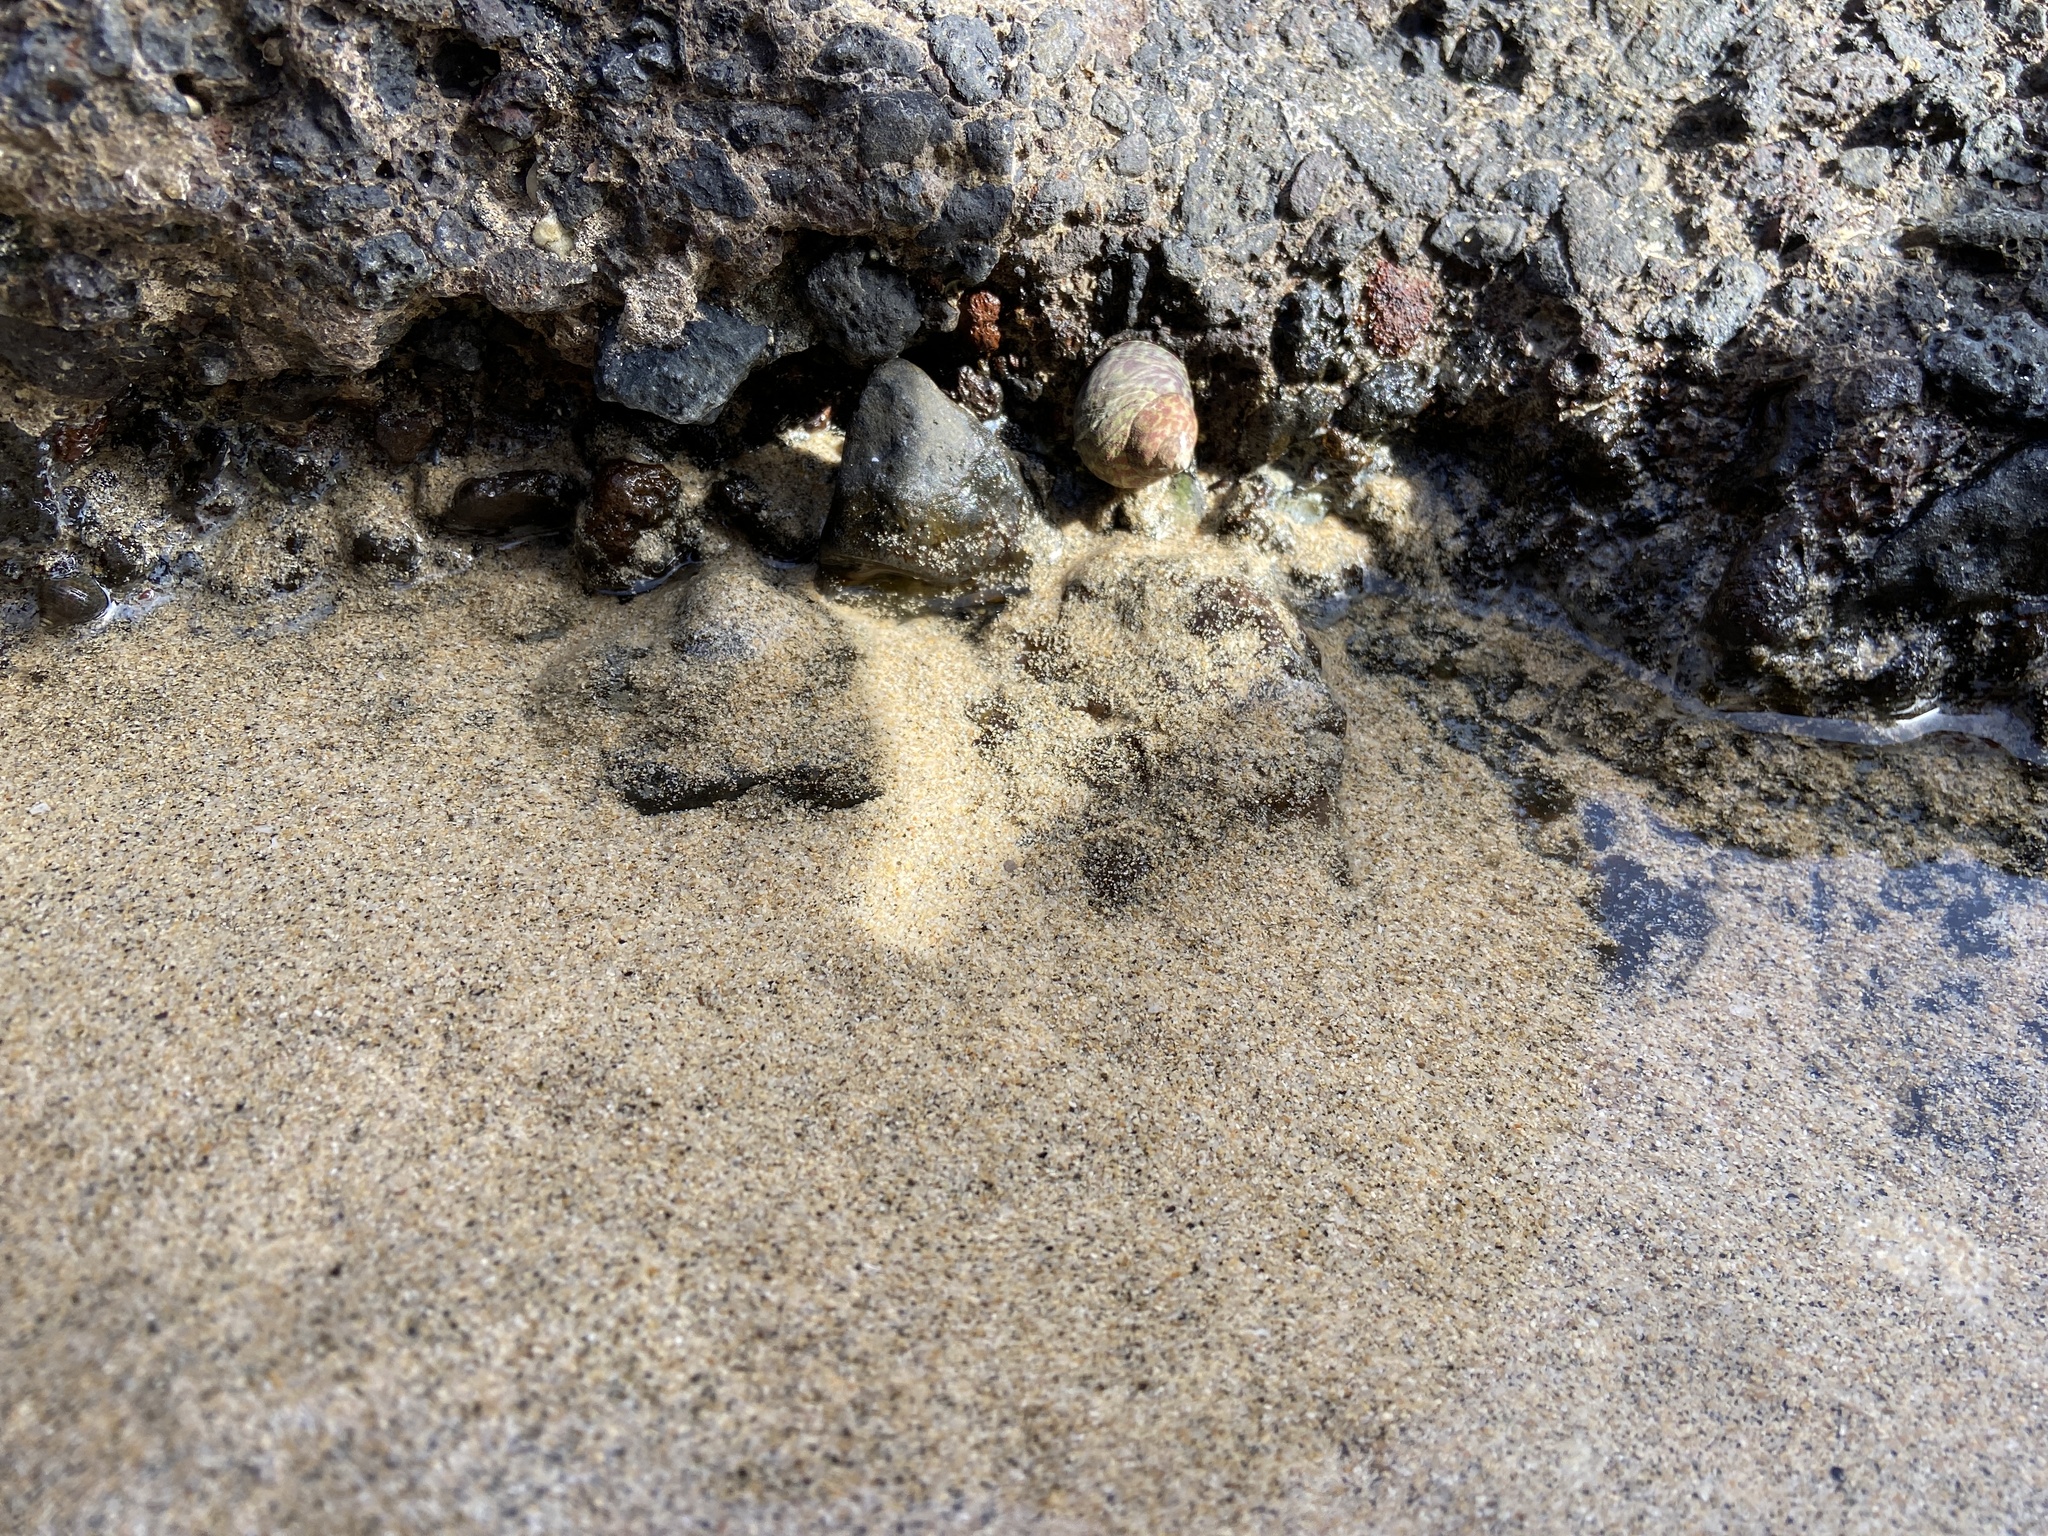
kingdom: Animalia
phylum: Mollusca
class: Gastropoda
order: Trochida
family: Trochidae
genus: Phorcus
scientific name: Phorcus sauciatus
